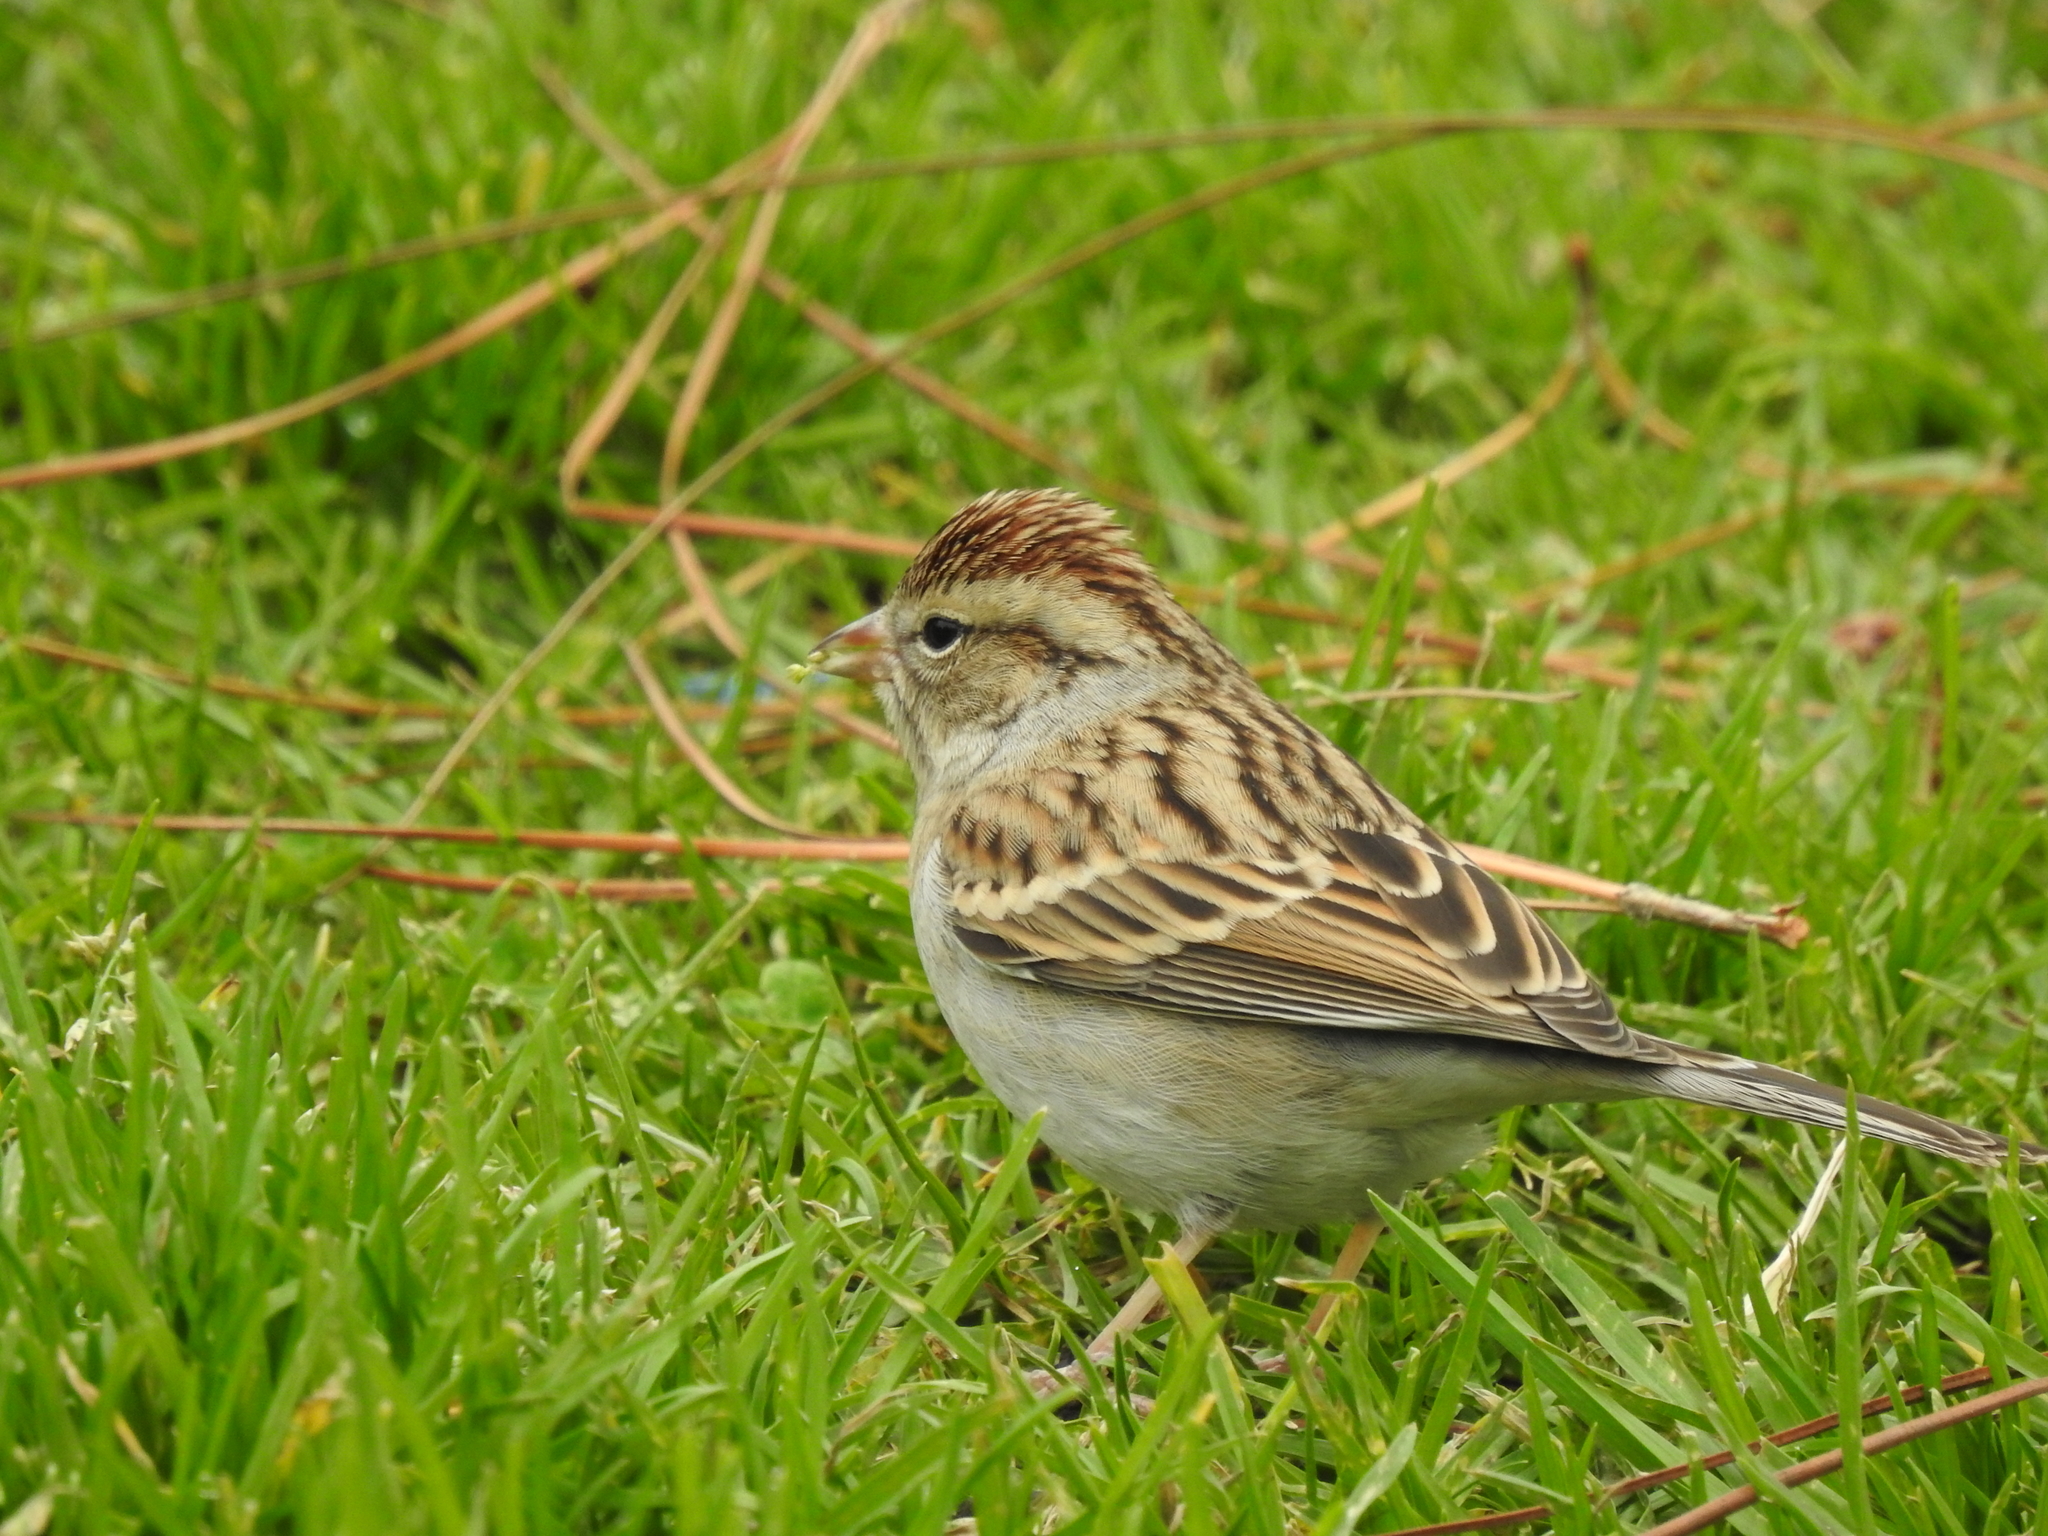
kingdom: Animalia
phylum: Chordata
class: Aves
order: Passeriformes
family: Passerellidae
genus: Spizella
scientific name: Spizella passerina
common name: Chipping sparrow
